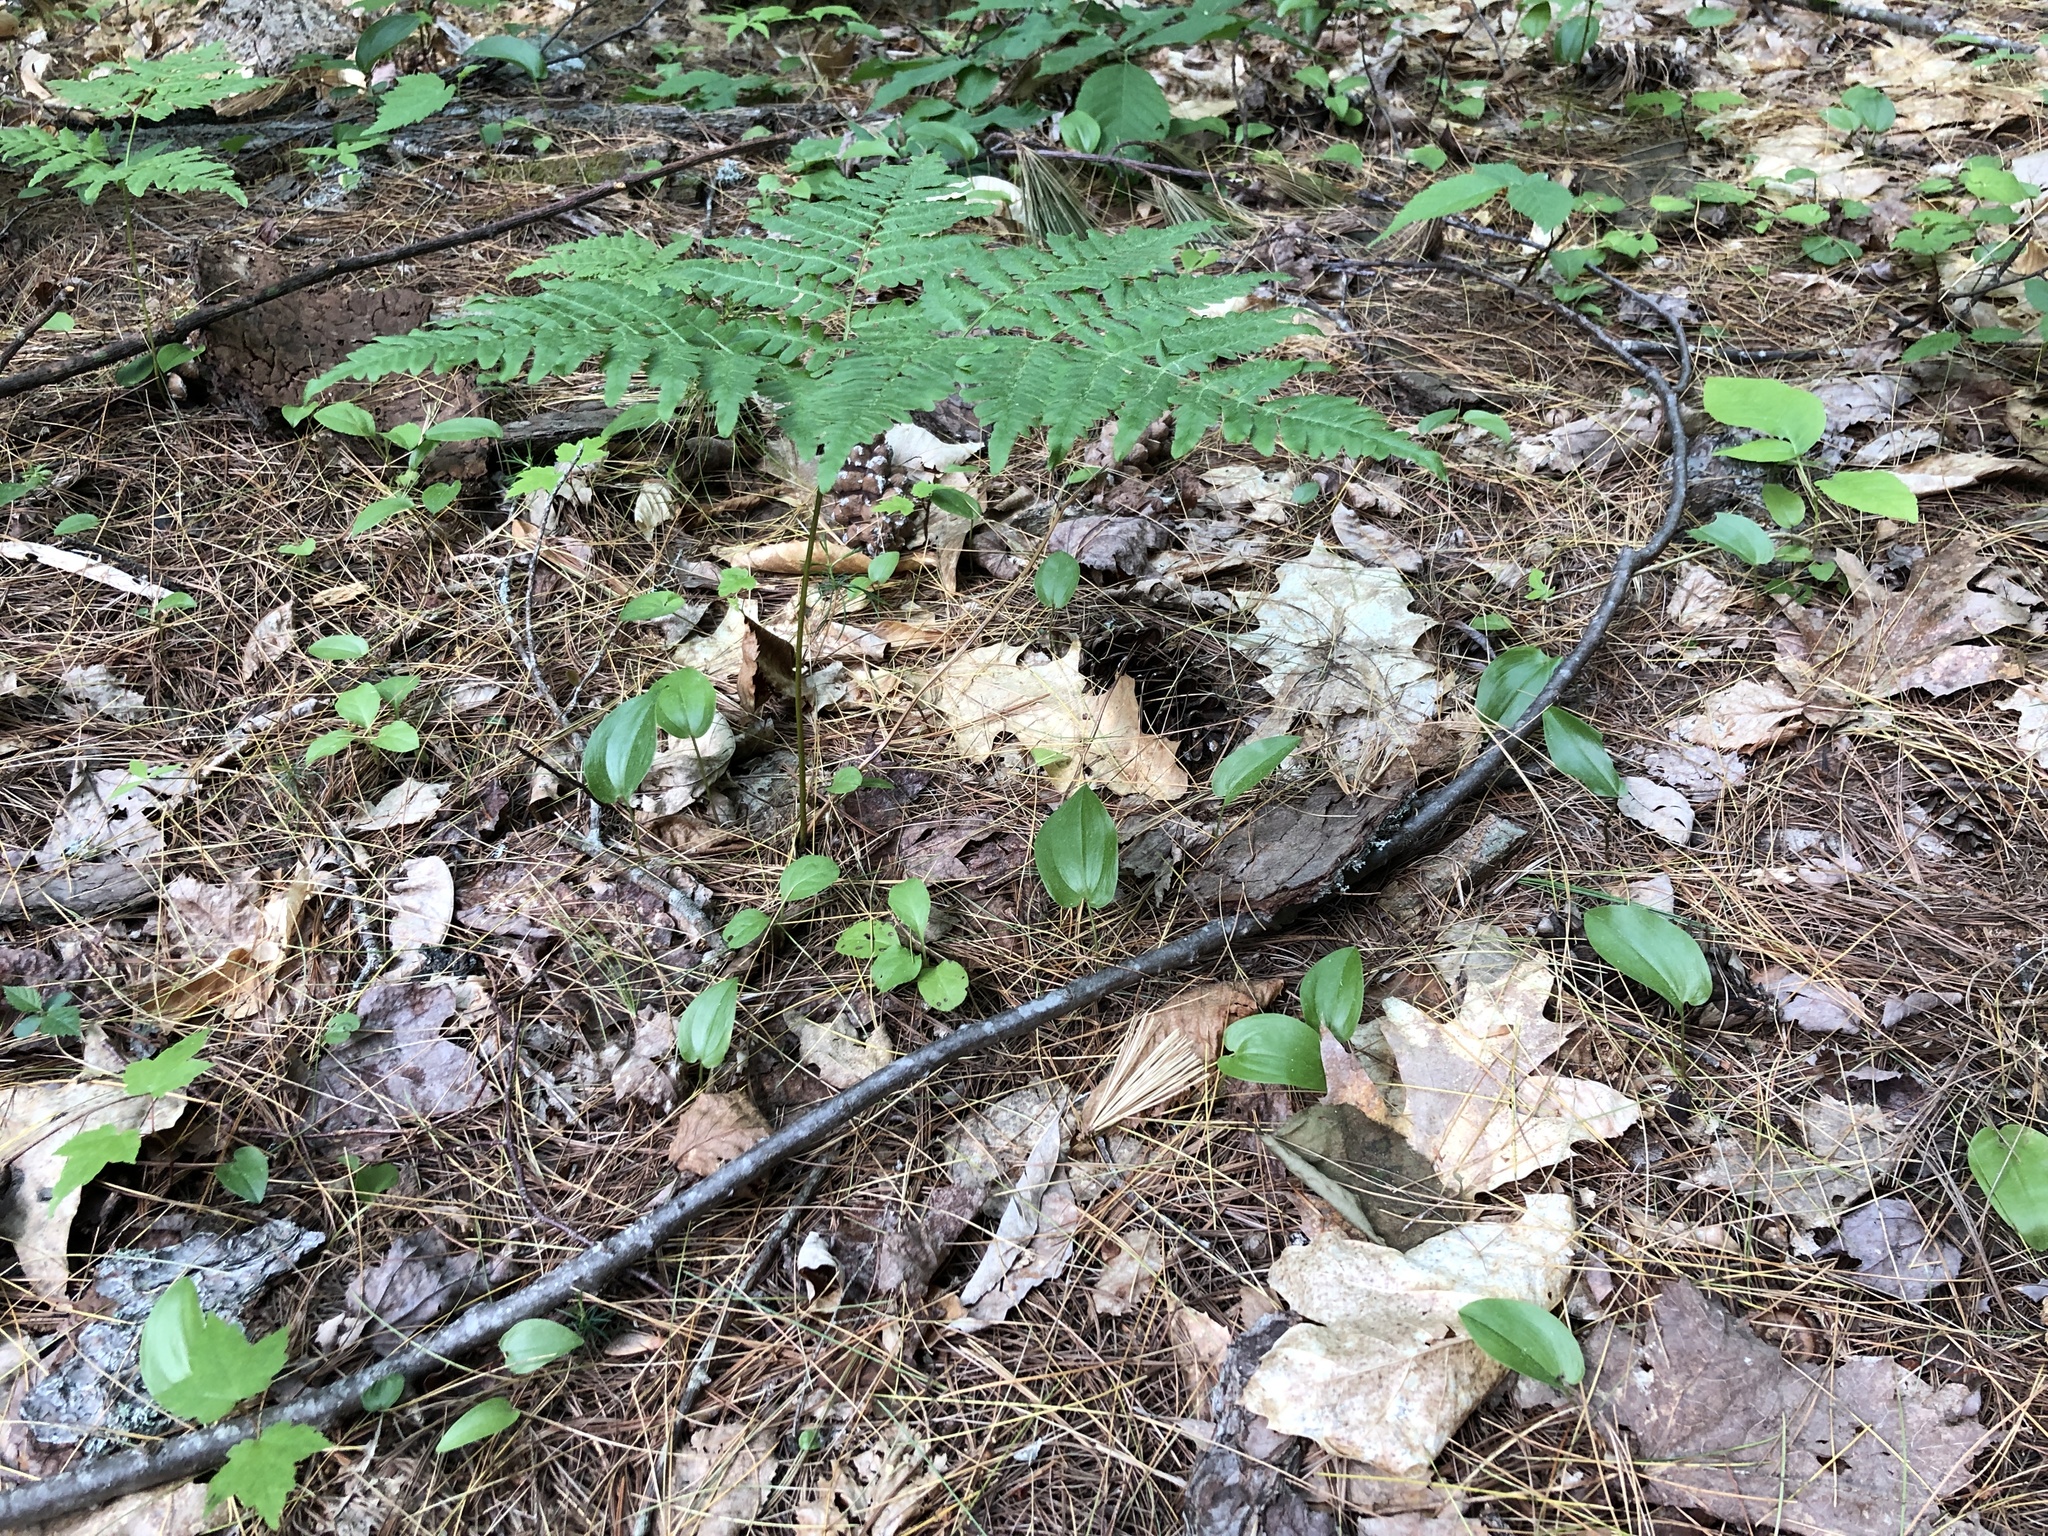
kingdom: Plantae
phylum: Tracheophyta
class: Polypodiopsida
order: Polypodiales
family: Dennstaedtiaceae
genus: Pteridium
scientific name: Pteridium aquilinum
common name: Bracken
